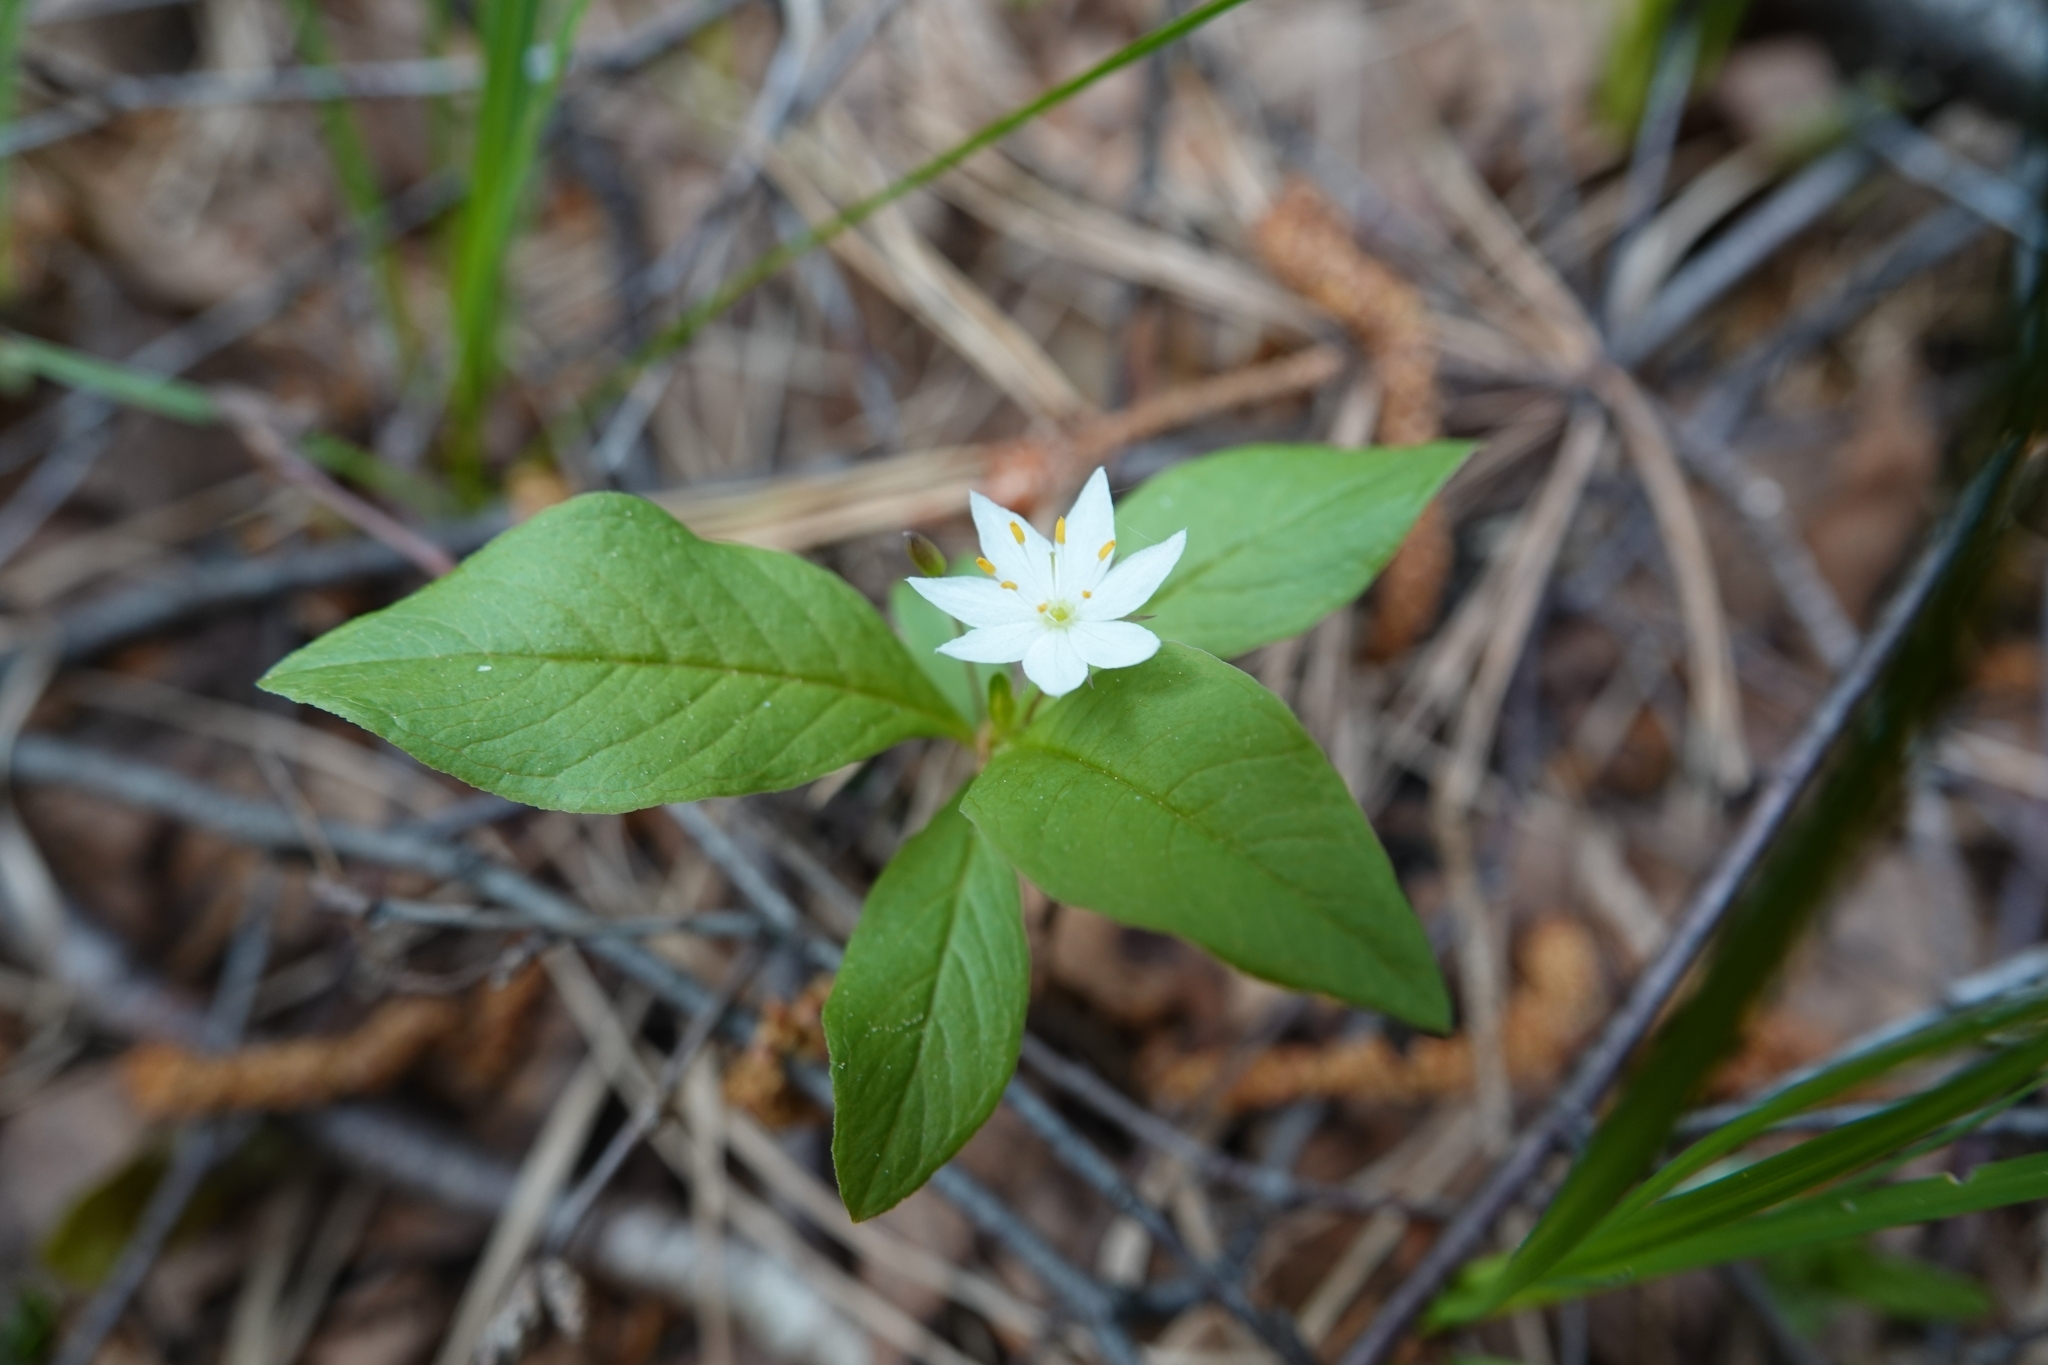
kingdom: Plantae
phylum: Tracheophyta
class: Magnoliopsida
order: Ericales
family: Primulaceae
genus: Lysimachia
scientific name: Lysimachia europaea
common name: Arctic starflower
